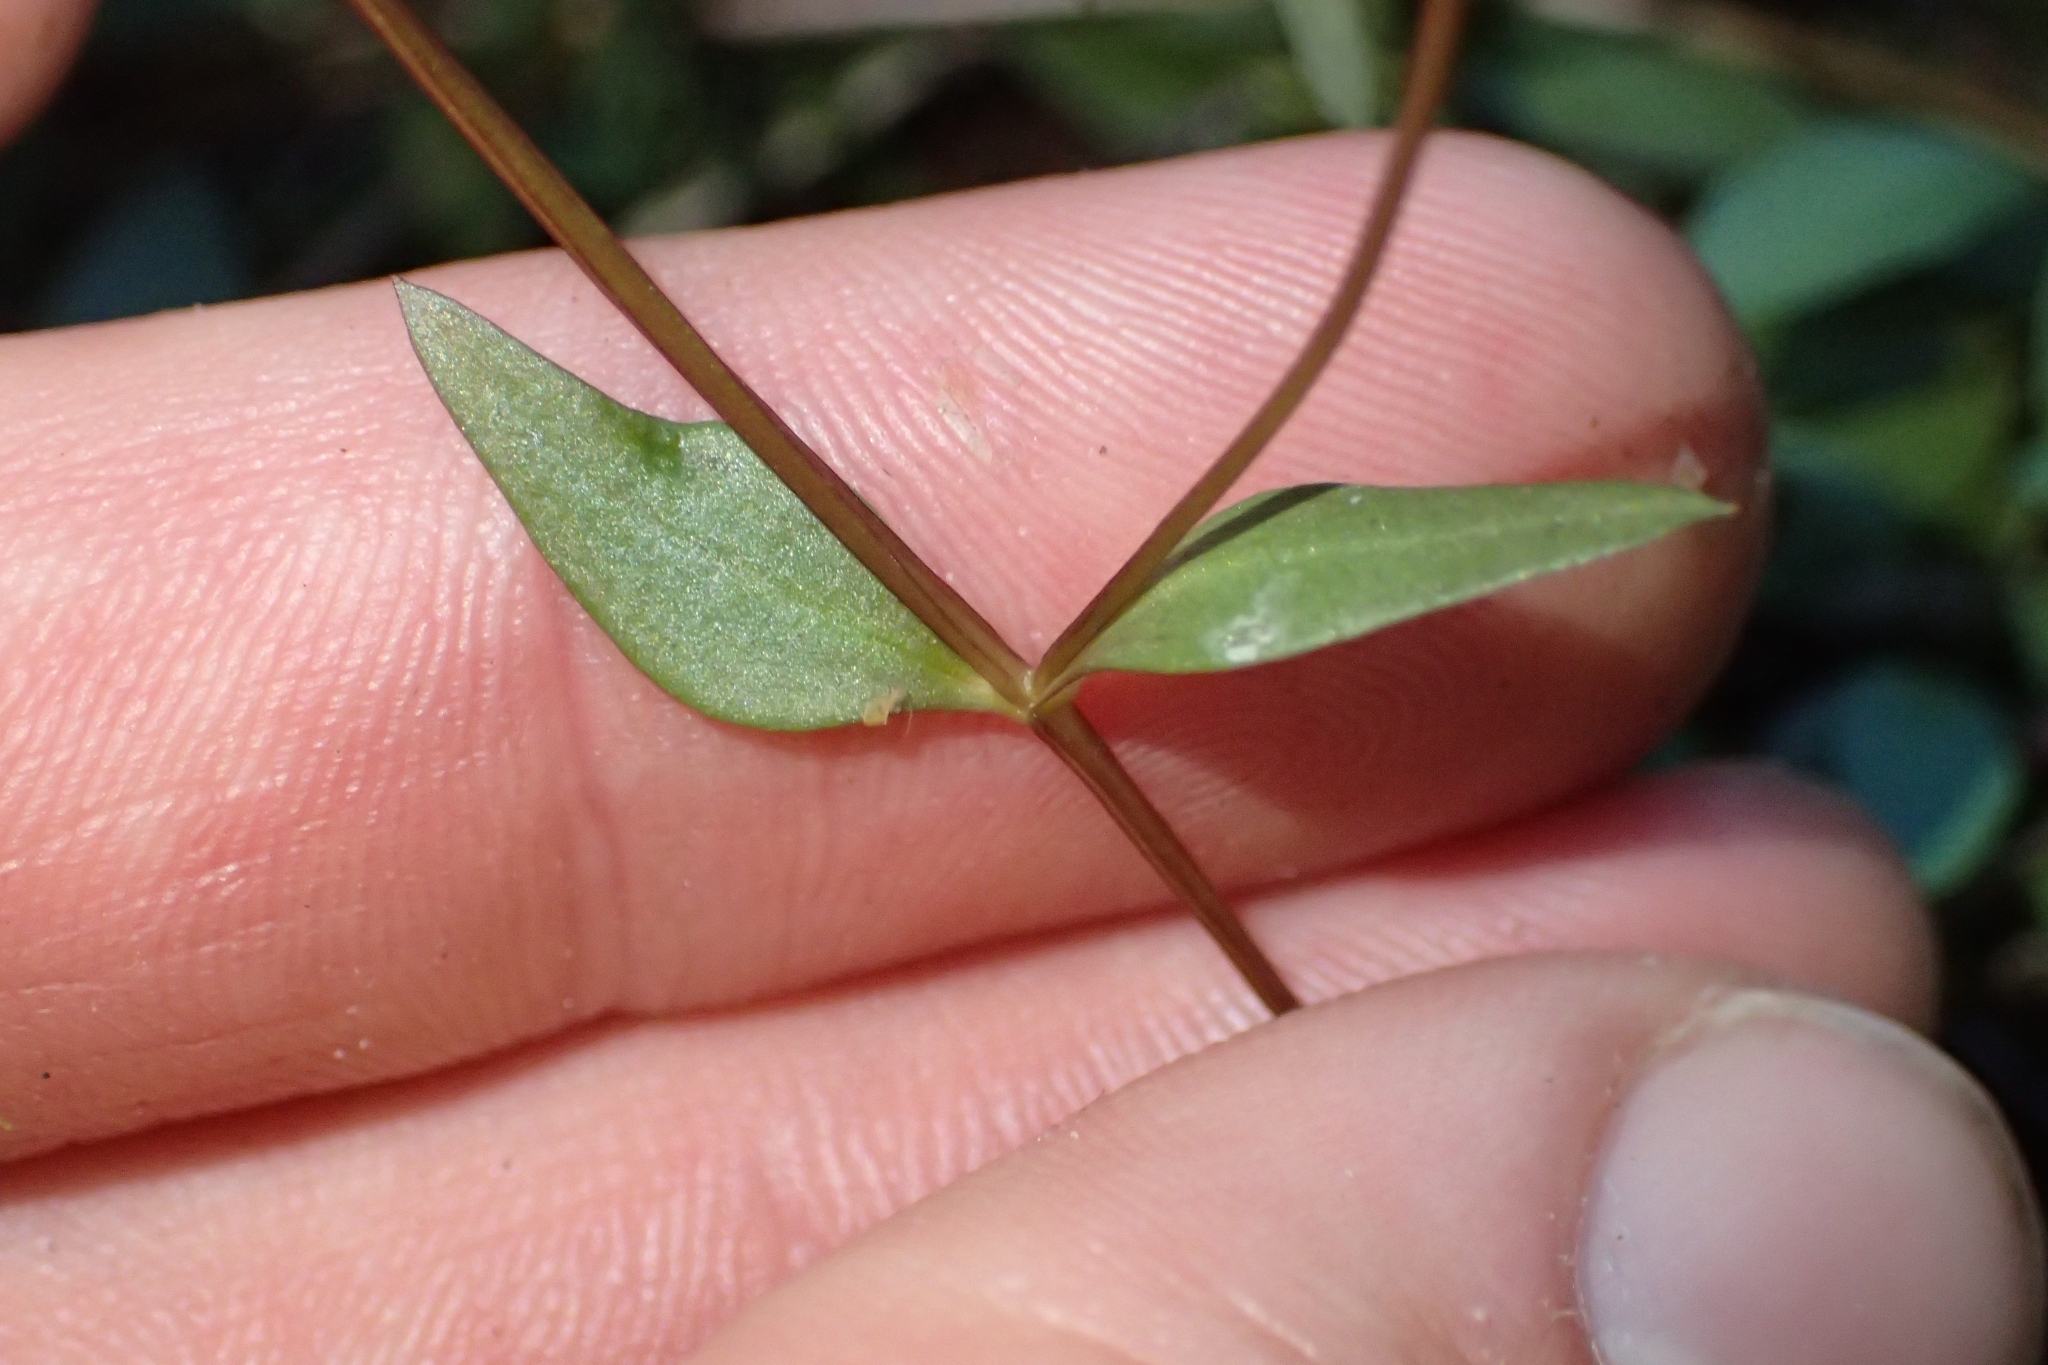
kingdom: Plantae
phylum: Tracheophyta
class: Magnoliopsida
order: Gentianales
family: Gentianaceae
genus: Gentianella
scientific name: Gentianella grisebachii
